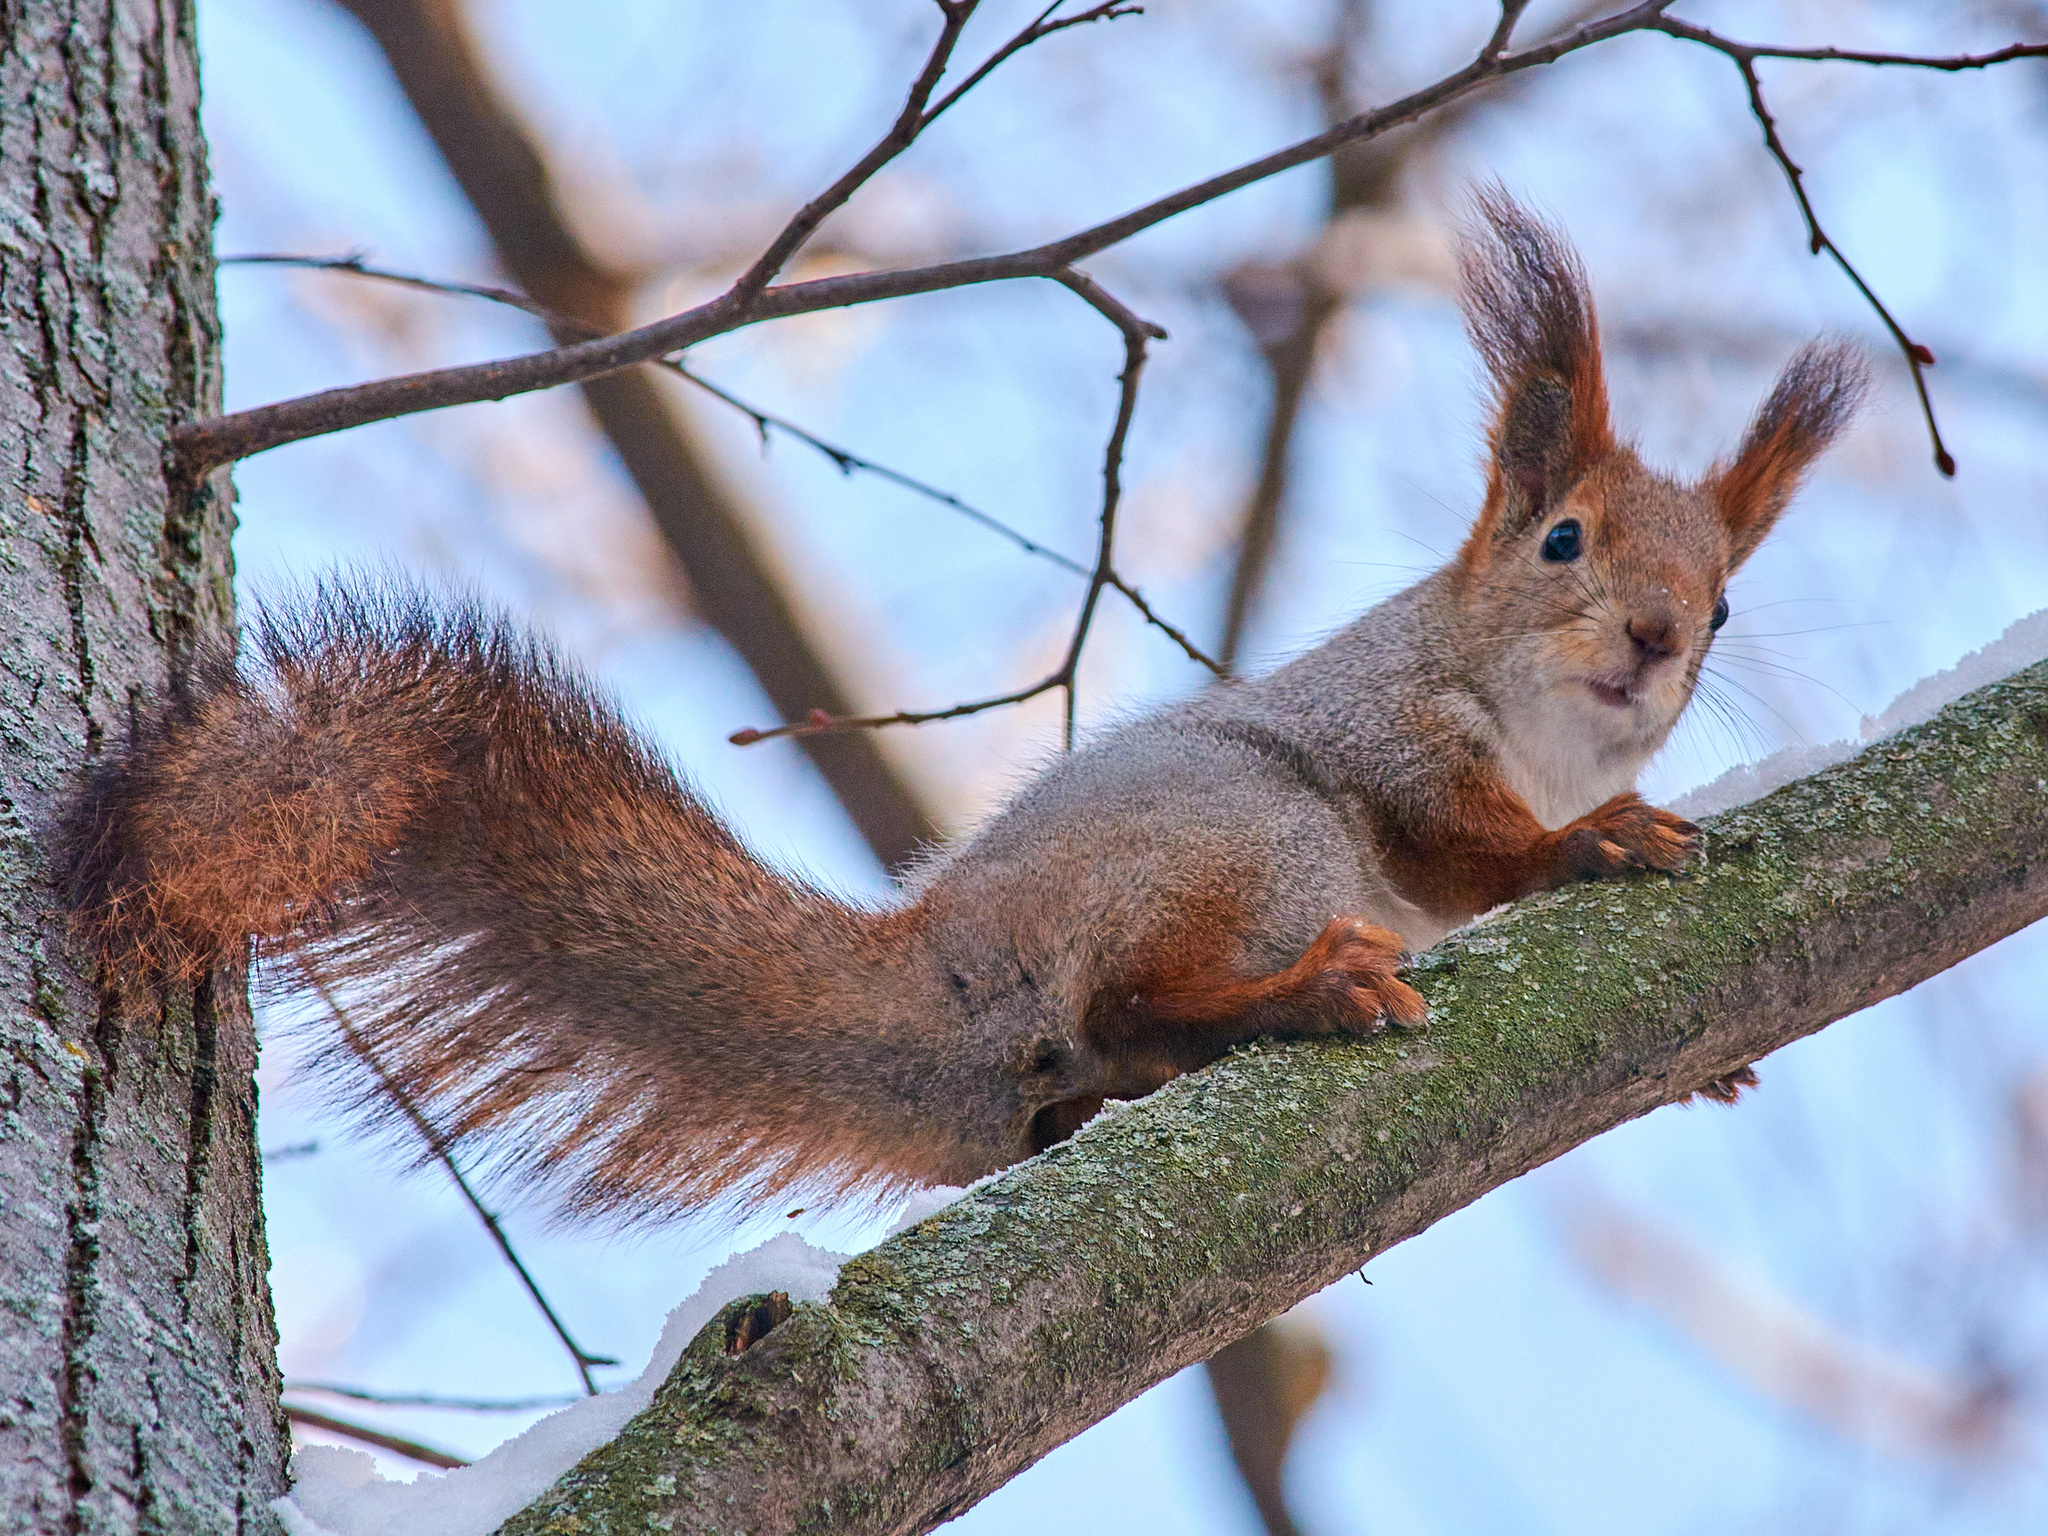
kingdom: Animalia
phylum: Chordata
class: Mammalia
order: Rodentia
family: Sciuridae
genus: Sciurus
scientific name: Sciurus vulgaris
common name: Eurasian red squirrel
